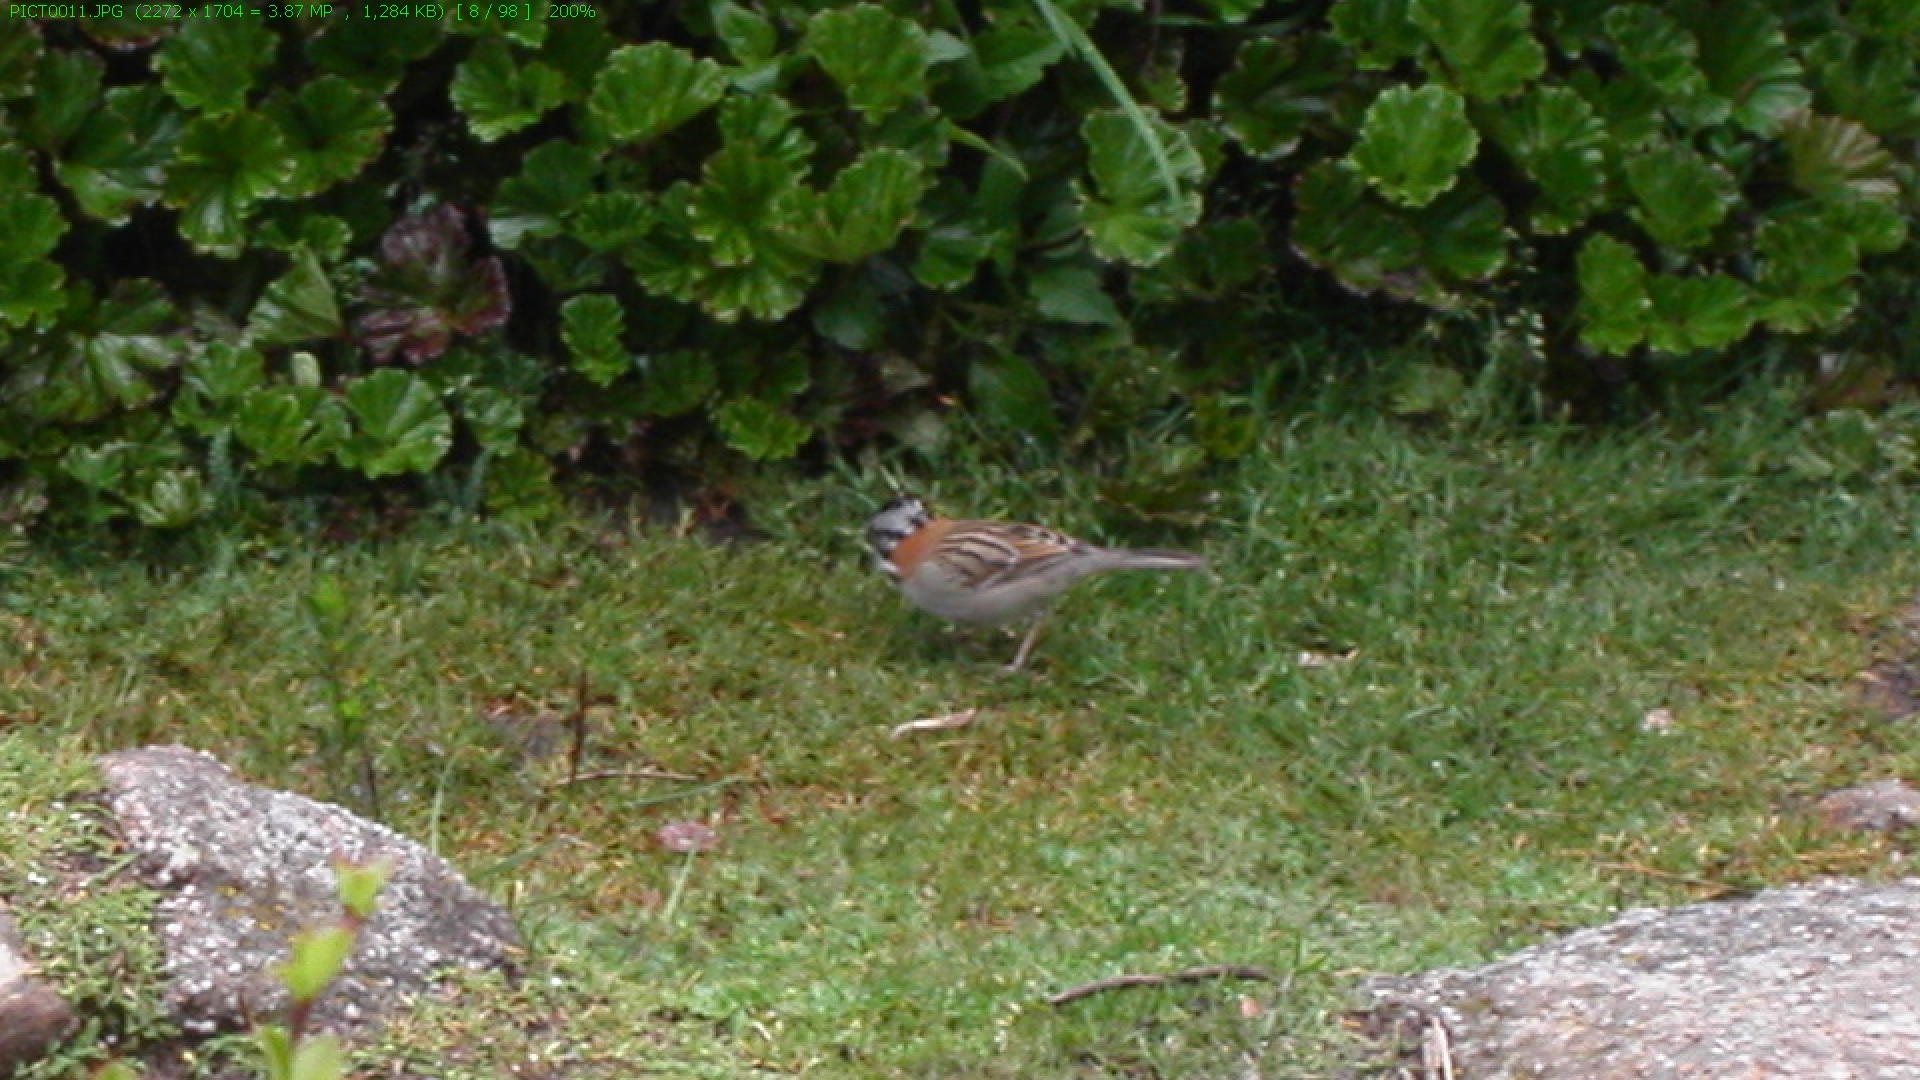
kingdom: Animalia
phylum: Chordata
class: Aves
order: Passeriformes
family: Passerellidae
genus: Zonotrichia
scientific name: Zonotrichia capensis
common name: Rufous-collared sparrow
